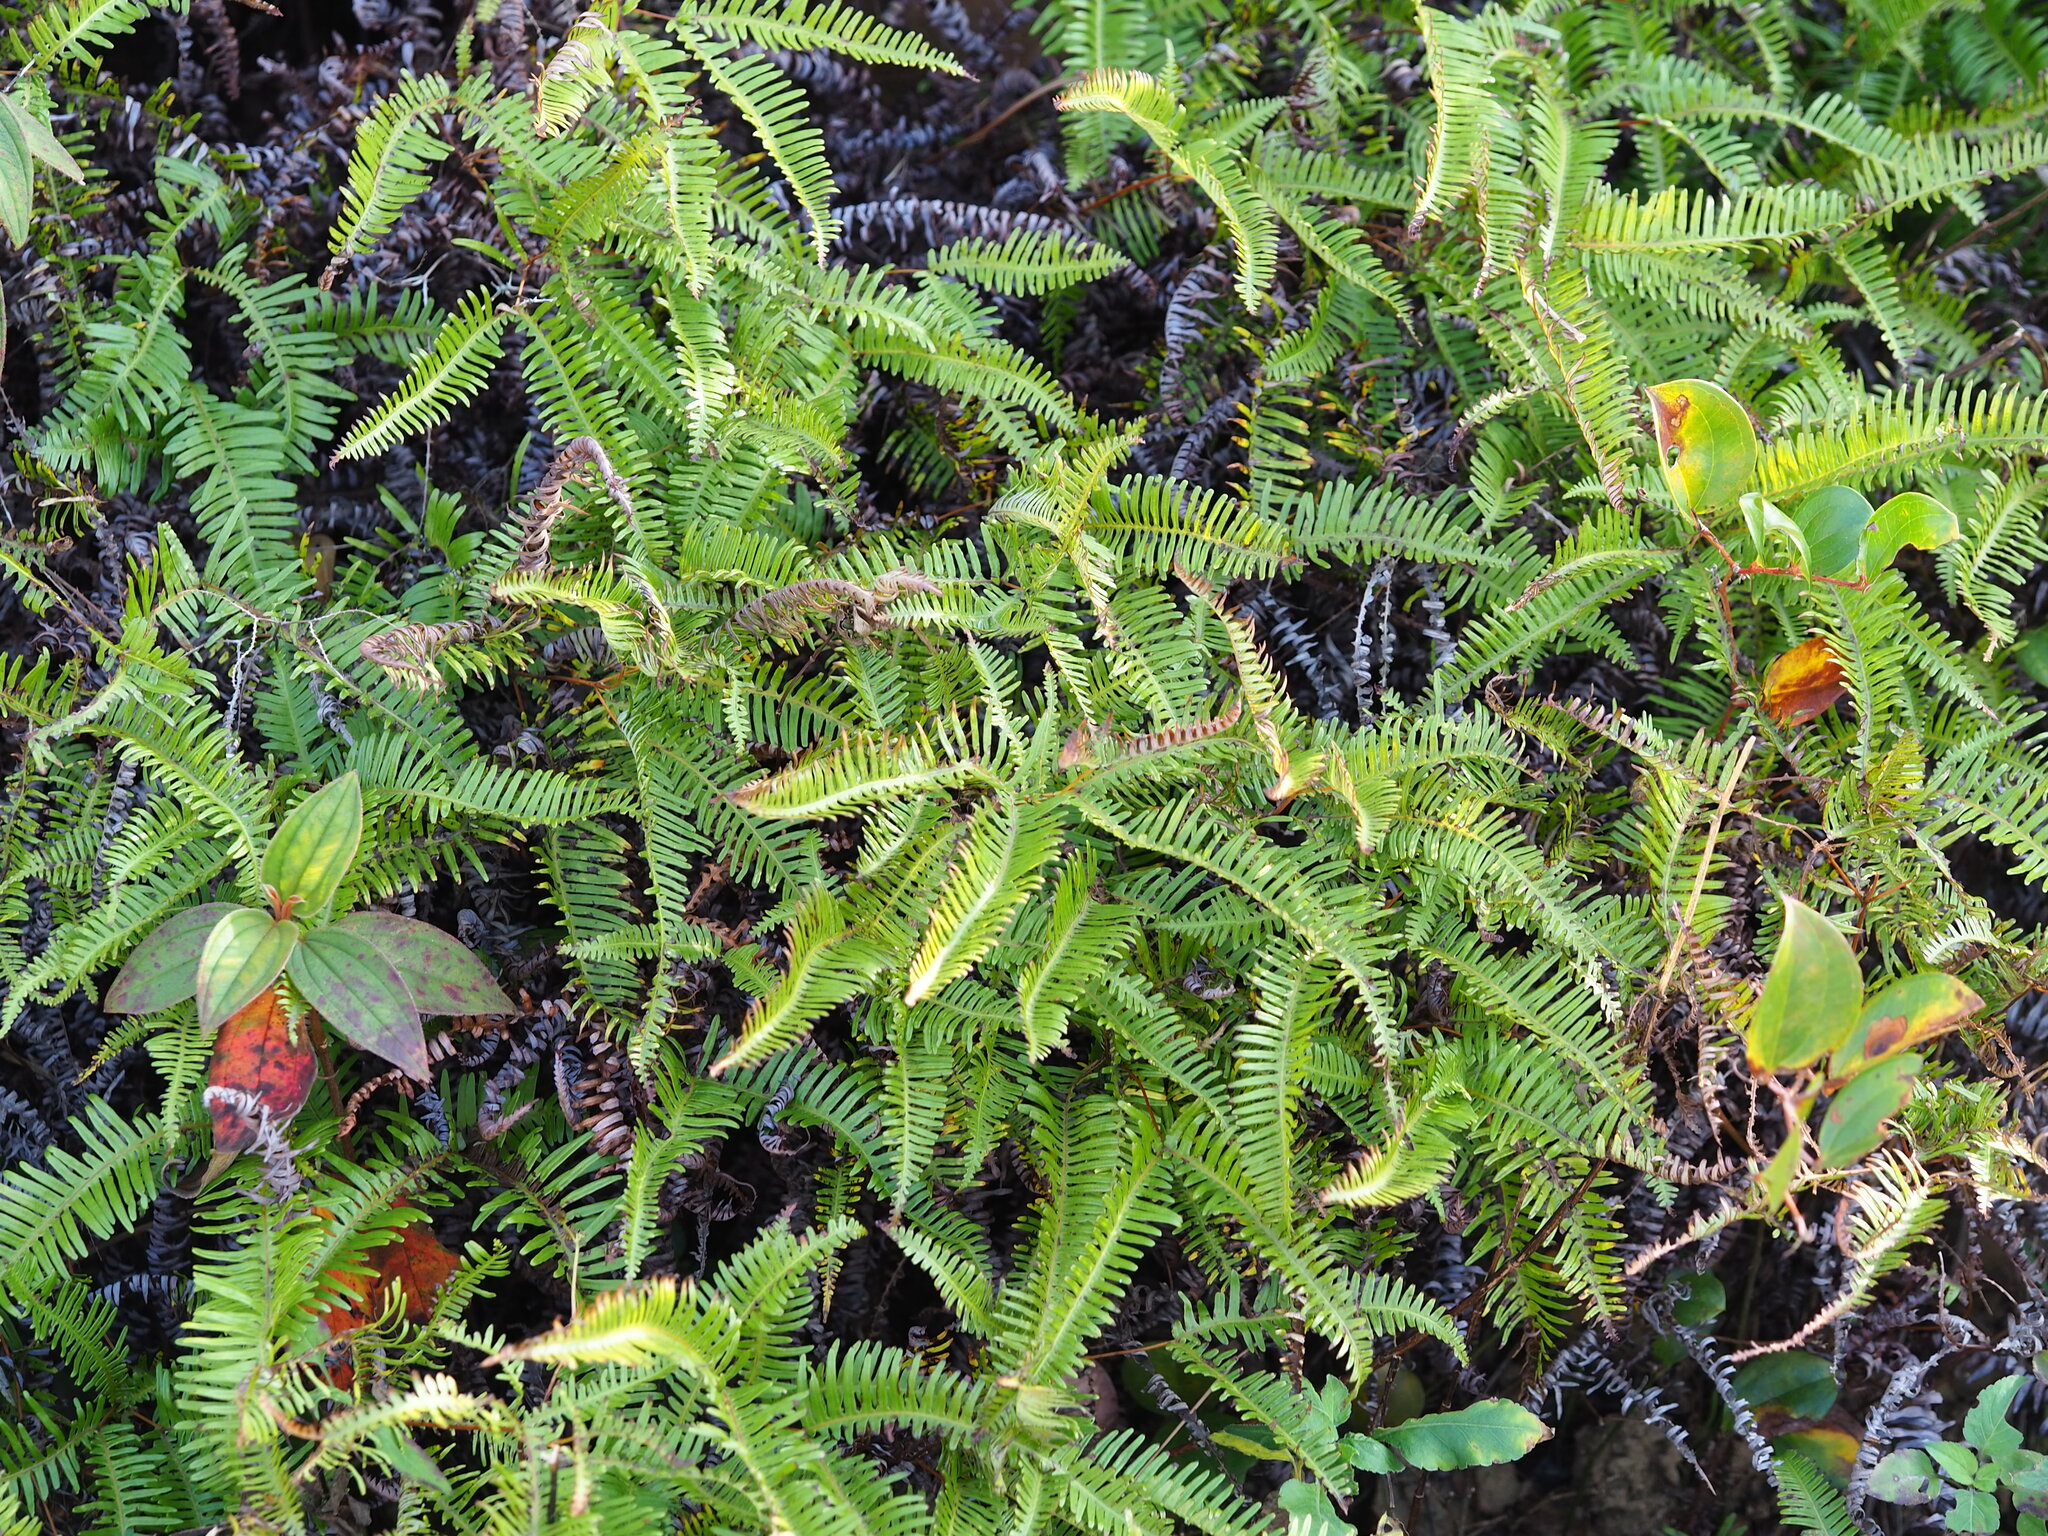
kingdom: Plantae
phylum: Tracheophyta
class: Polypodiopsida
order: Gleicheniales
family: Gleicheniaceae
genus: Dicranopteris
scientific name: Dicranopteris linearis
